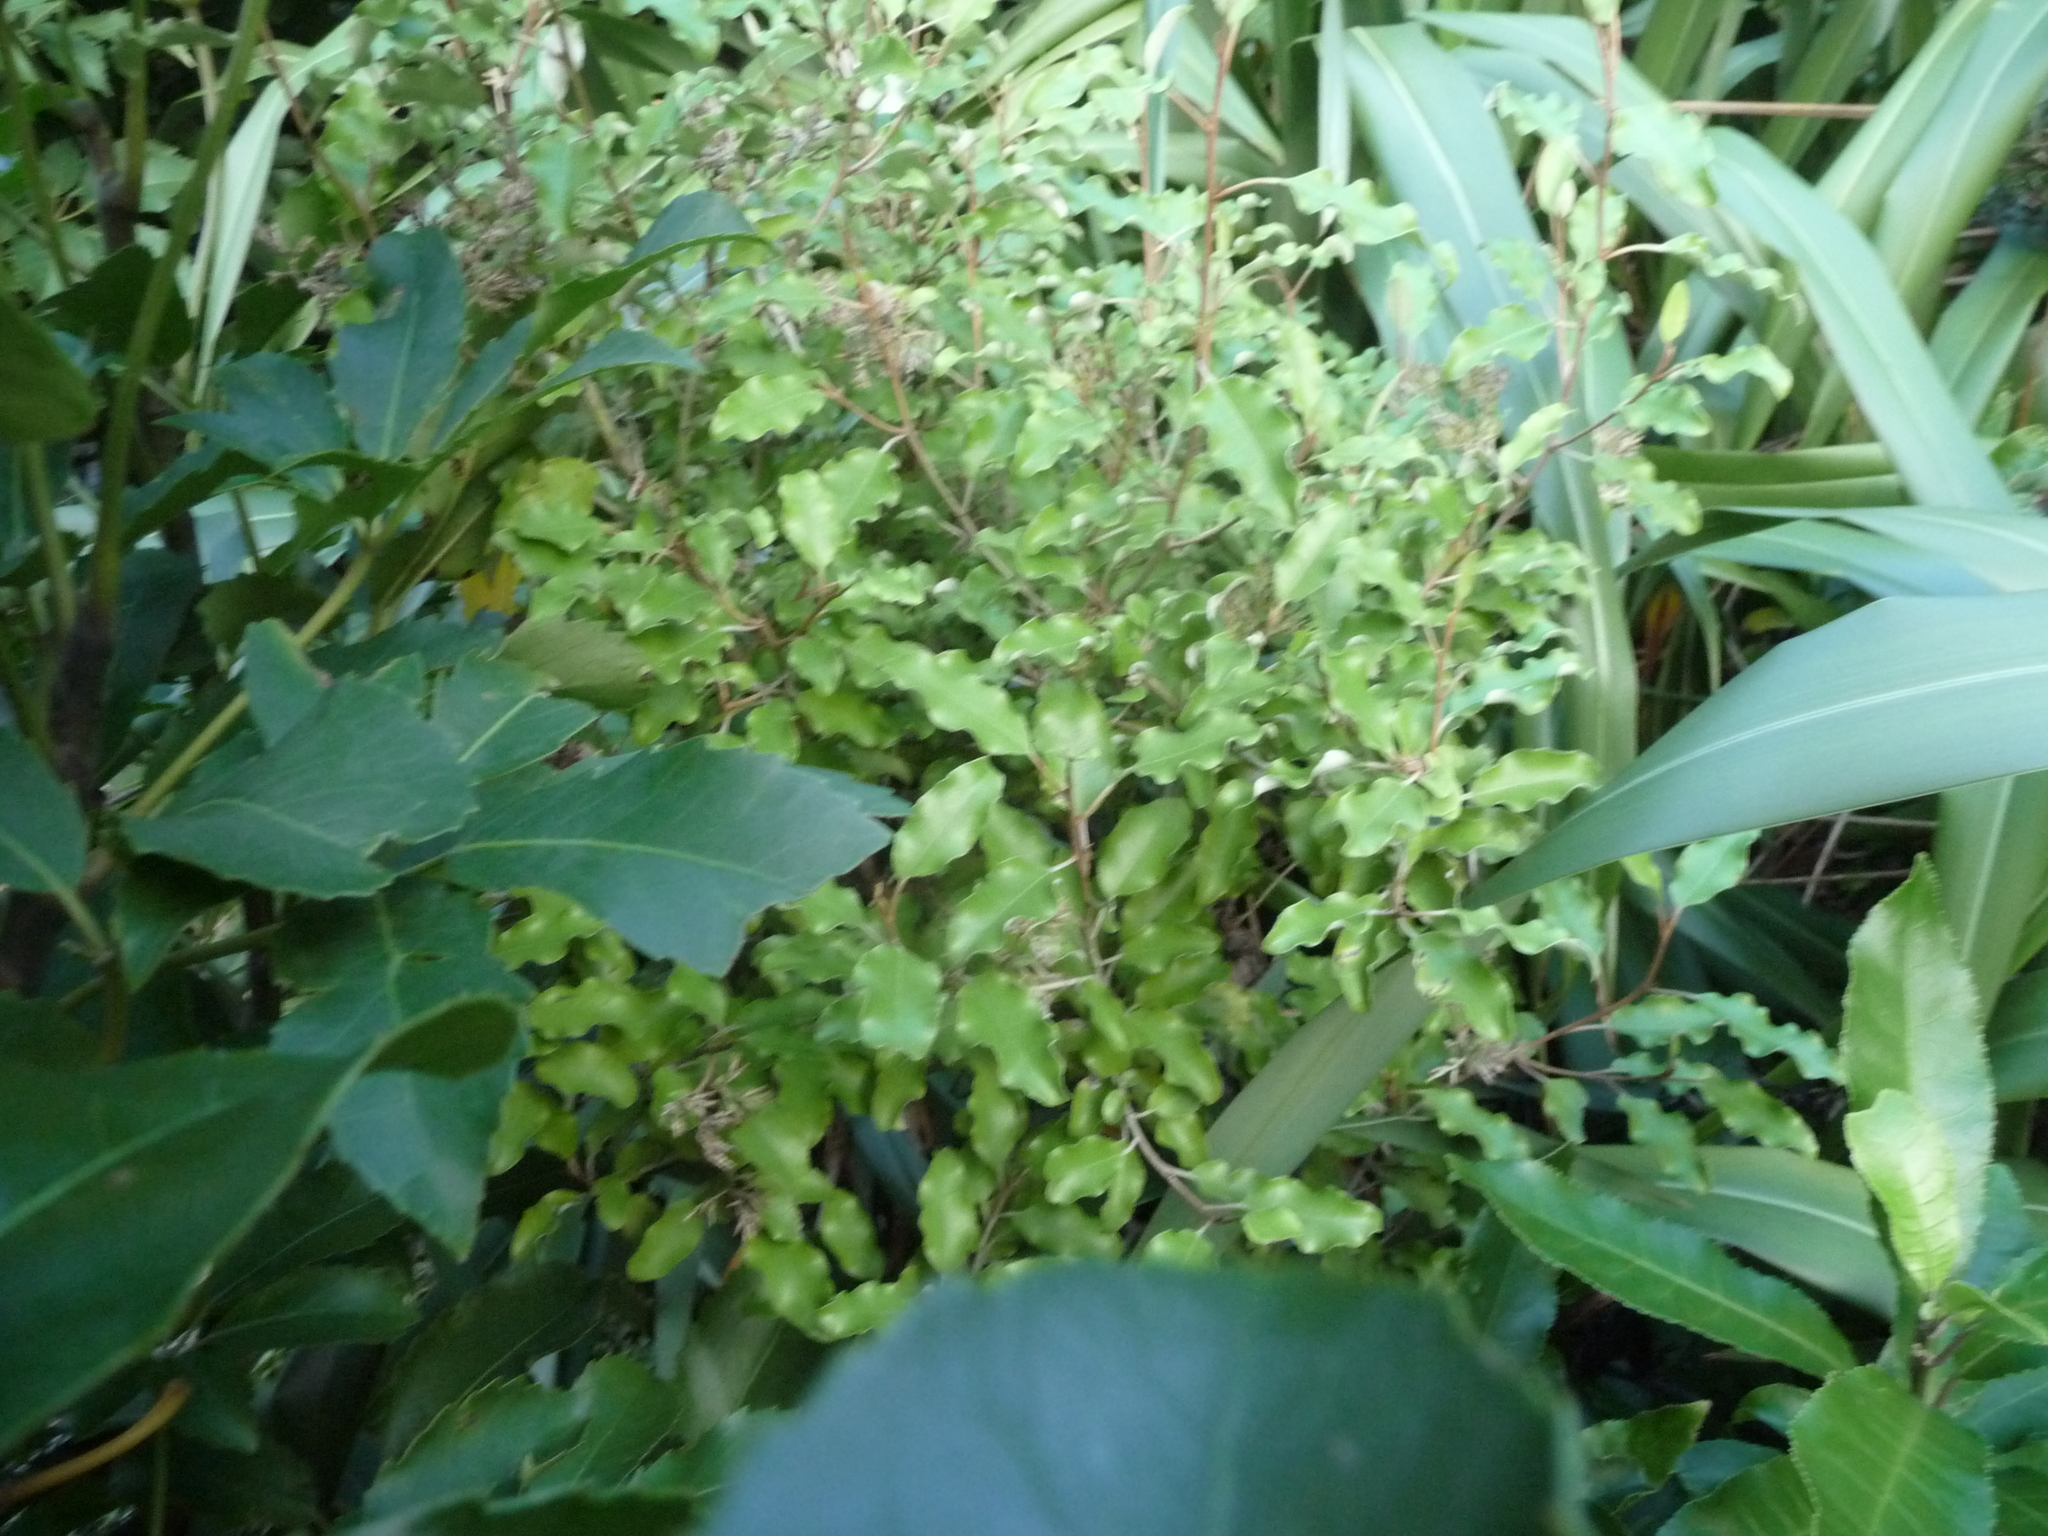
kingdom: Plantae
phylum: Tracheophyta
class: Magnoliopsida
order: Asterales
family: Asteraceae
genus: Olearia
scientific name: Olearia paniculata
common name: Akiraho
